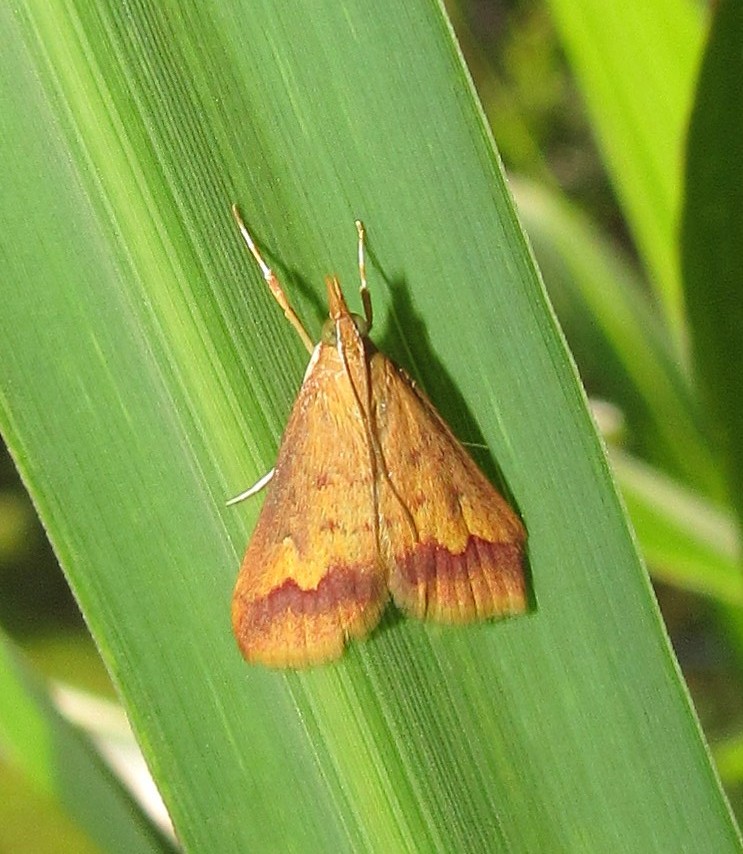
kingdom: Animalia
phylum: Arthropoda
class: Insecta
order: Lepidoptera
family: Crambidae
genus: Hyalorista
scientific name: Hyalorista taeniolalis
